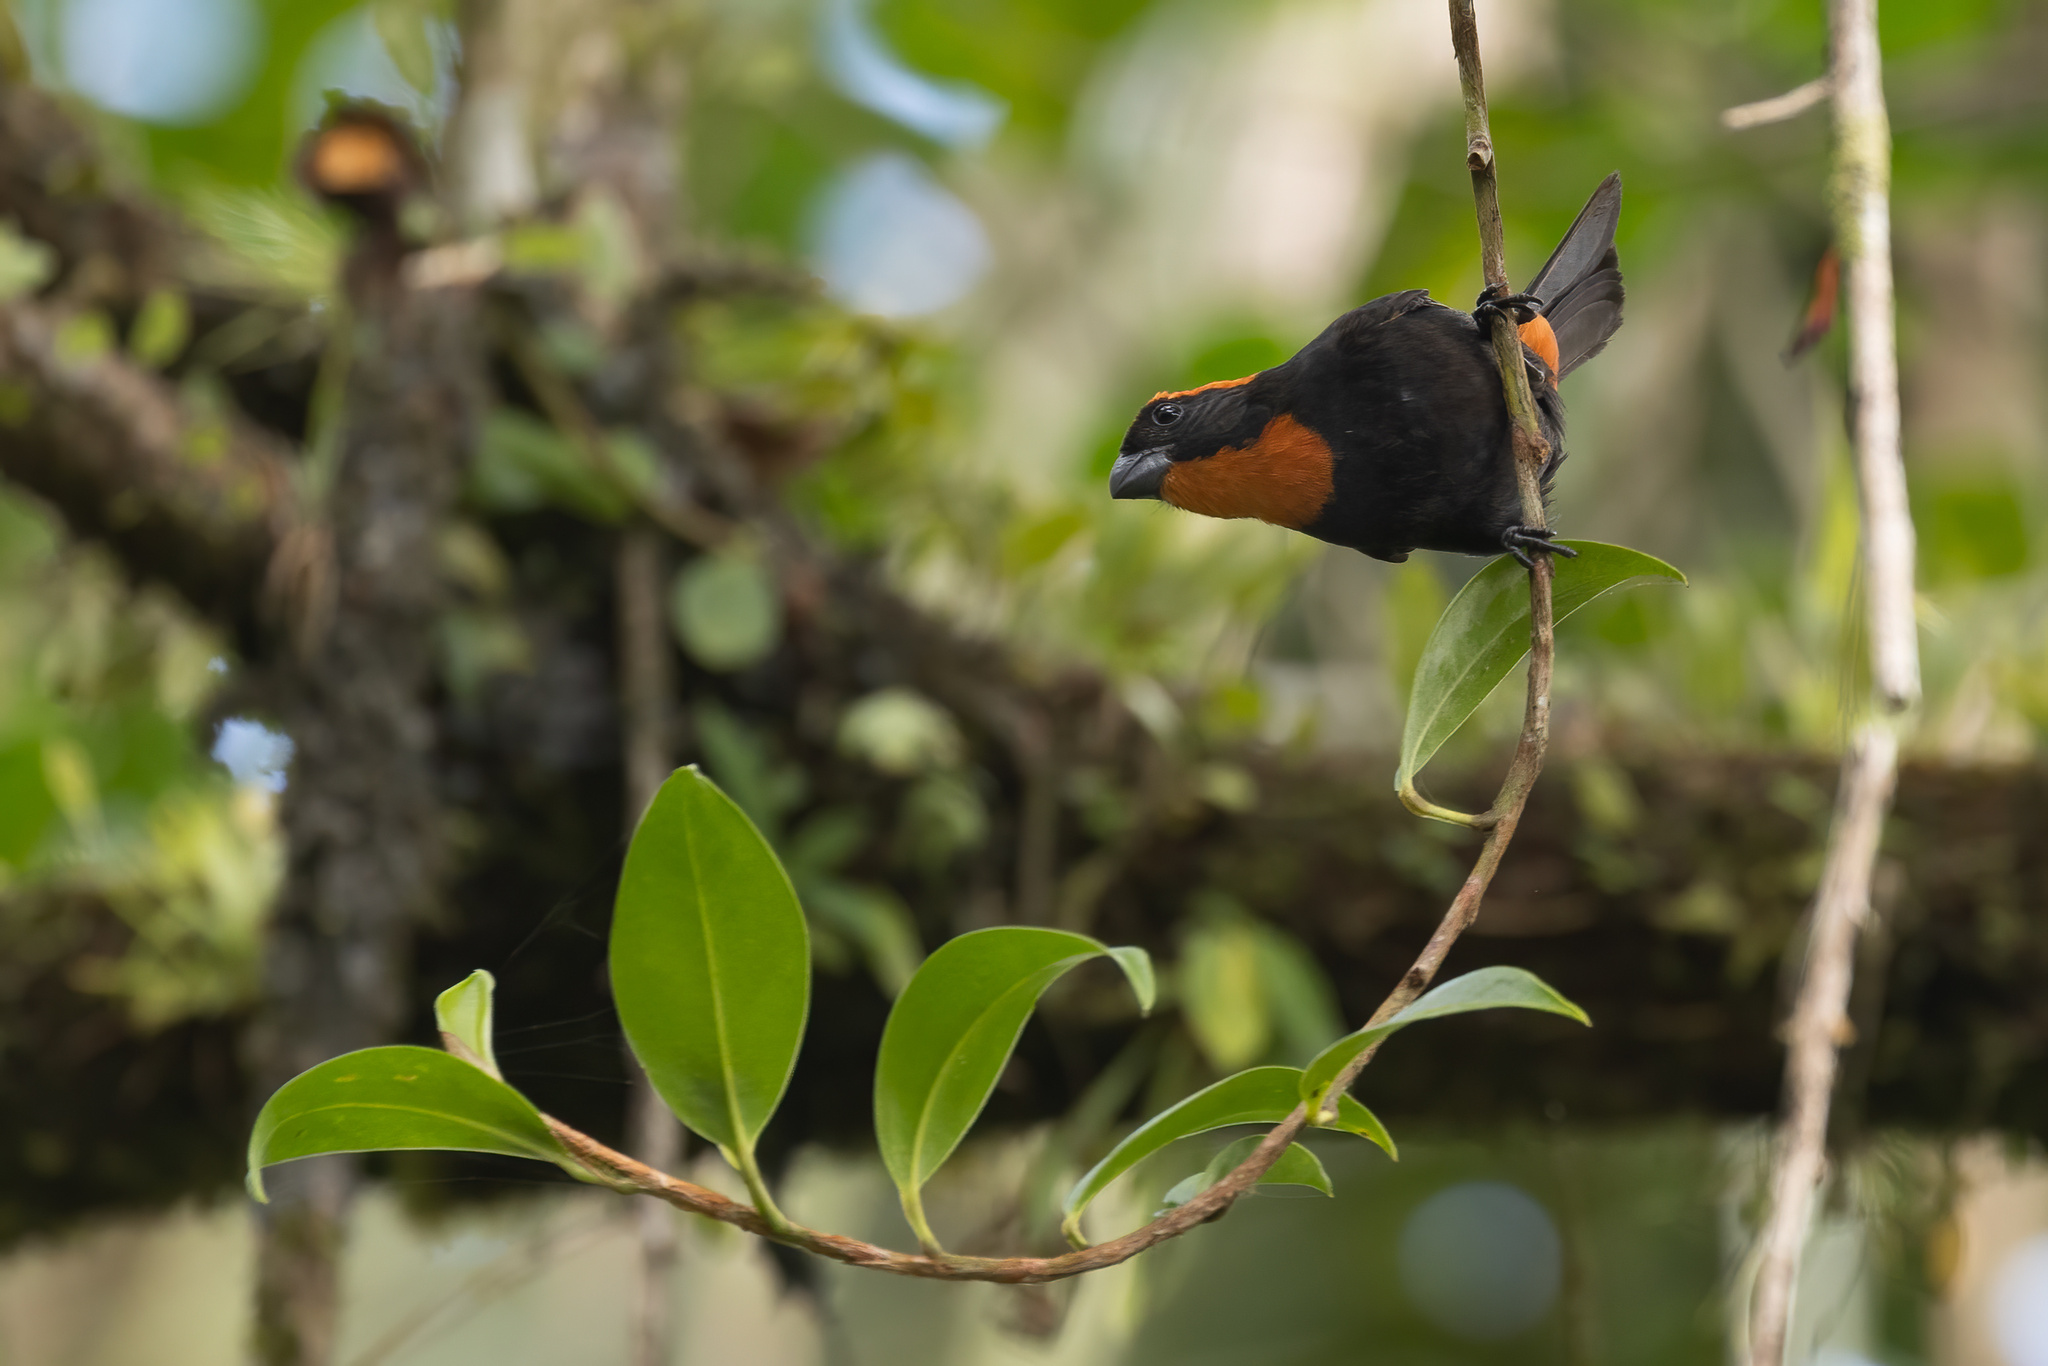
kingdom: Animalia
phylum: Chordata
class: Aves
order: Passeriformes
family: Thraupidae
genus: Melopyrrha
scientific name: Melopyrrha portoricensis
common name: Puerto rican bullfinch
